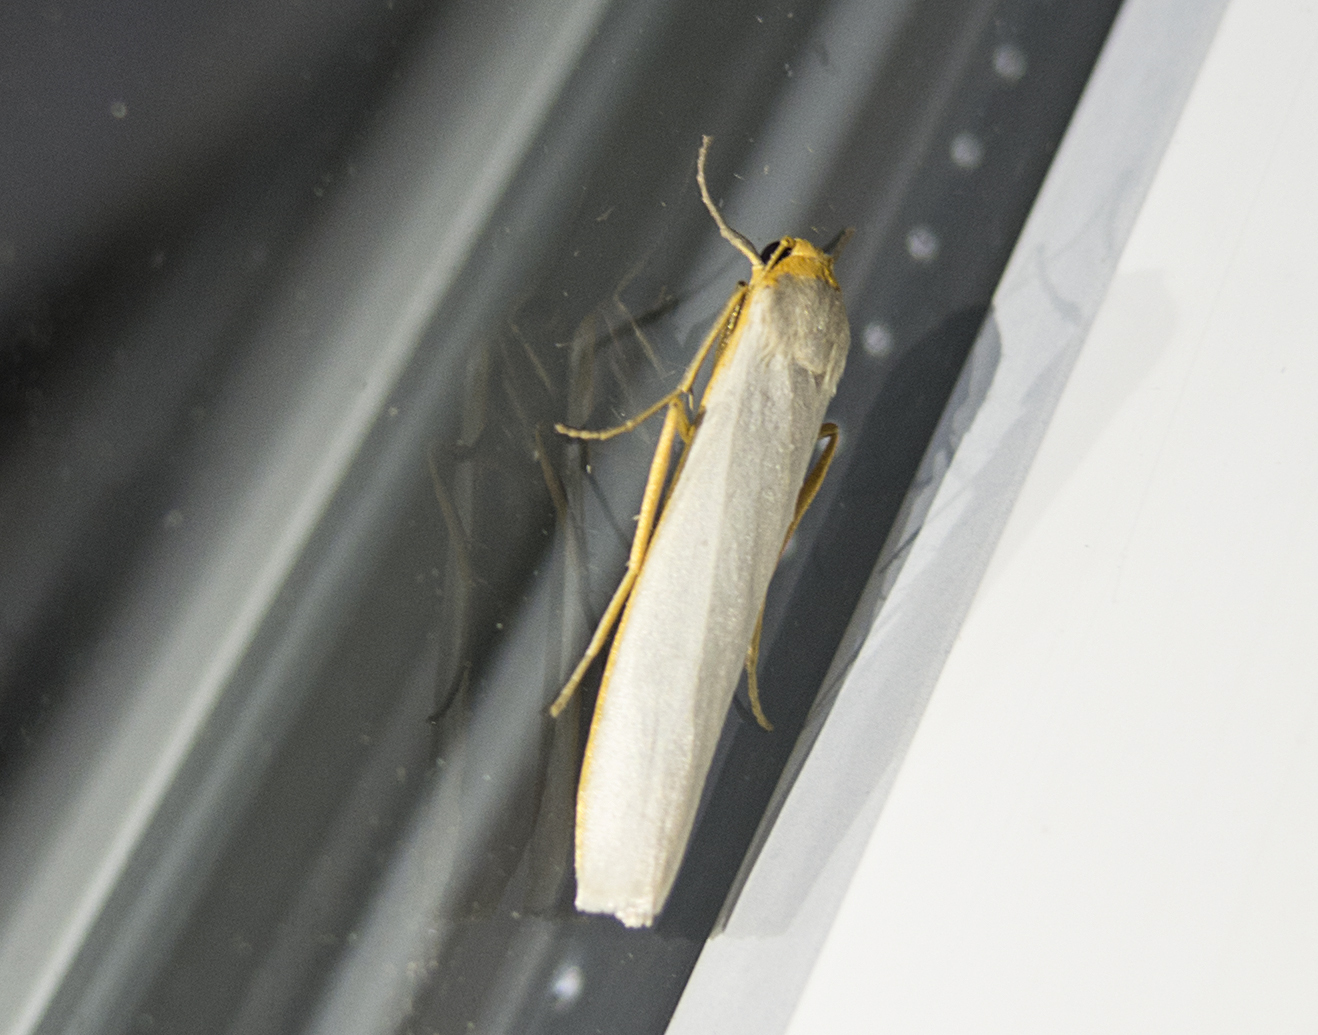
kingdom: Animalia
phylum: Arthropoda
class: Insecta
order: Lepidoptera
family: Erebidae
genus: Eilema
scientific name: Eilema caniola
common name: Hoary footman
